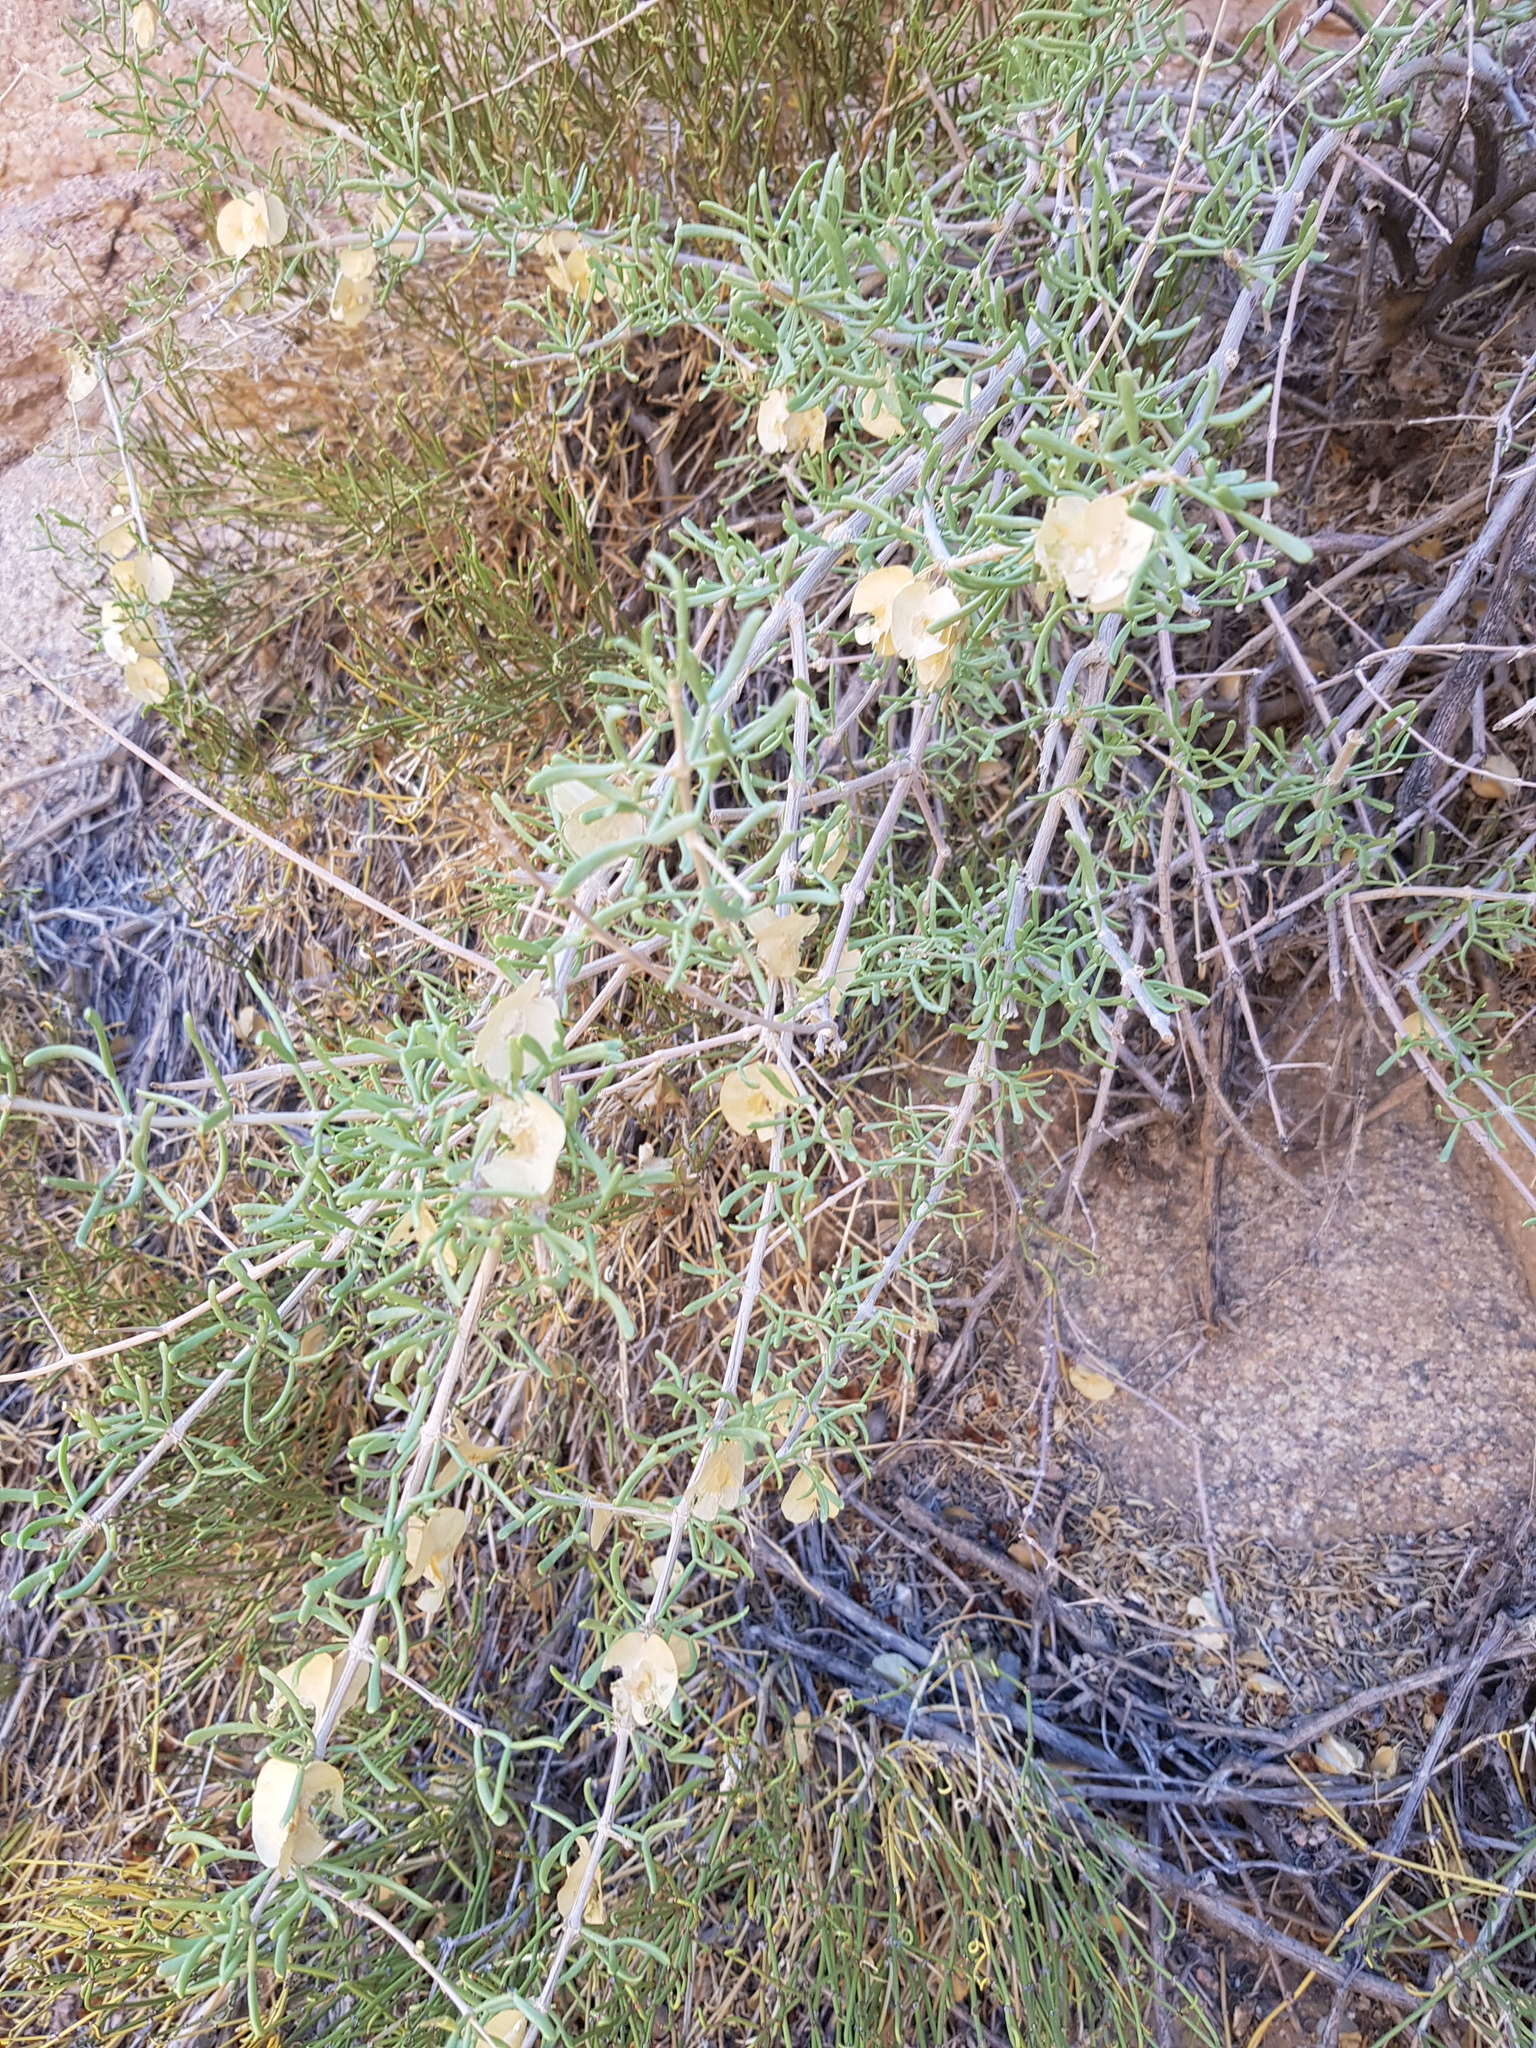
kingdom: Plantae
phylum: Tracheophyta
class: Magnoliopsida
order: Zygophyllales
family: Zygophyllaceae
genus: Zygophyllum
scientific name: Zygophyllum xanthoxylum
